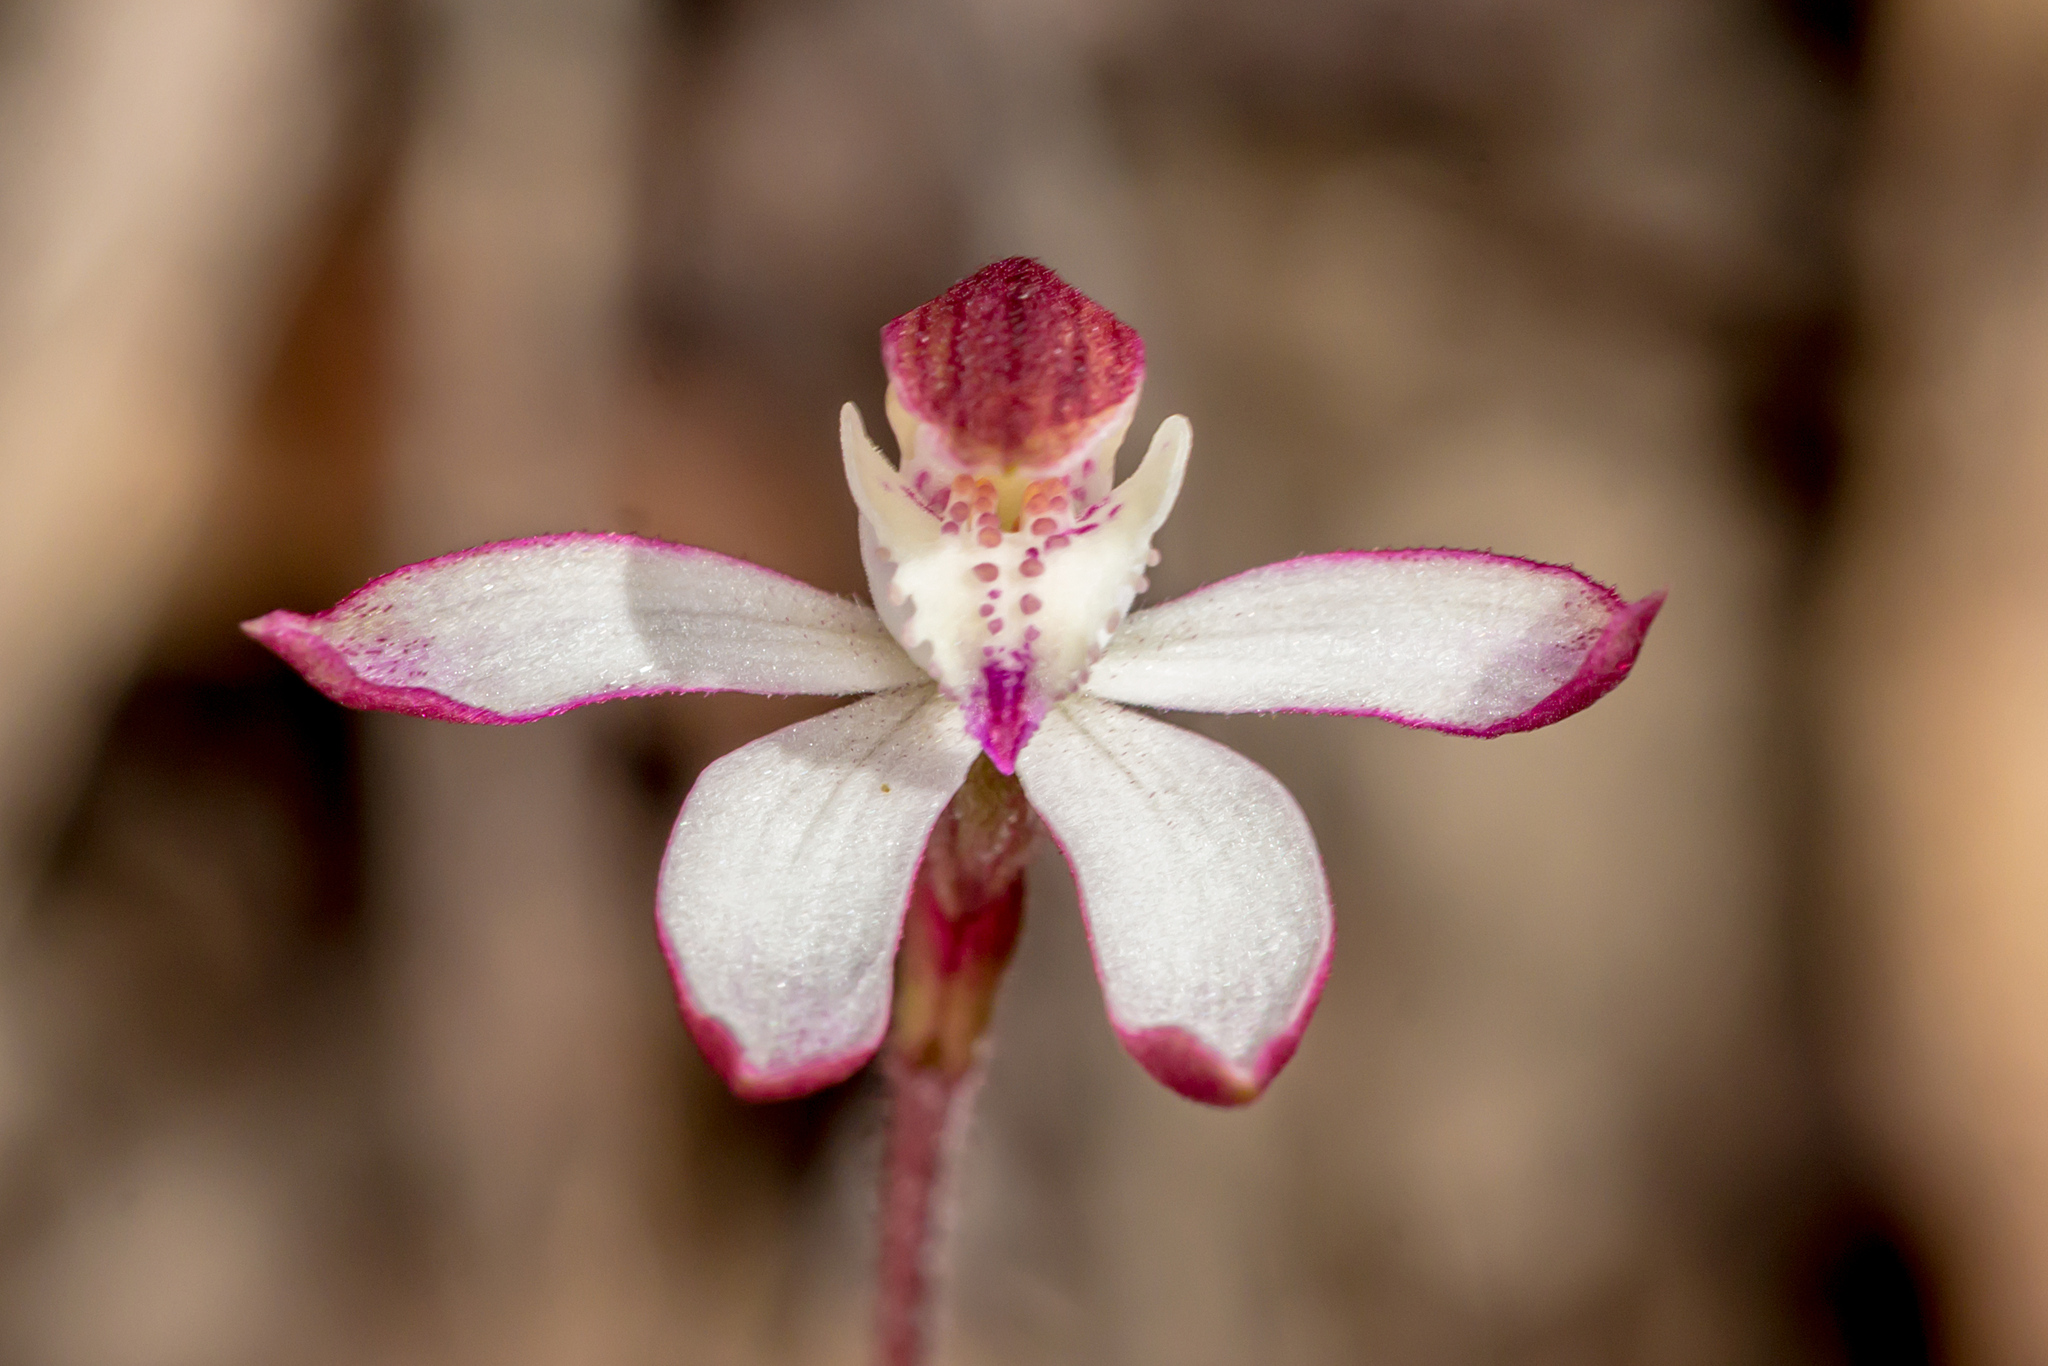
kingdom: Plantae
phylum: Tracheophyta
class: Liliopsida
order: Asparagales
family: Orchidaceae
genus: Caladenia
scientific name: Caladenia moschata
